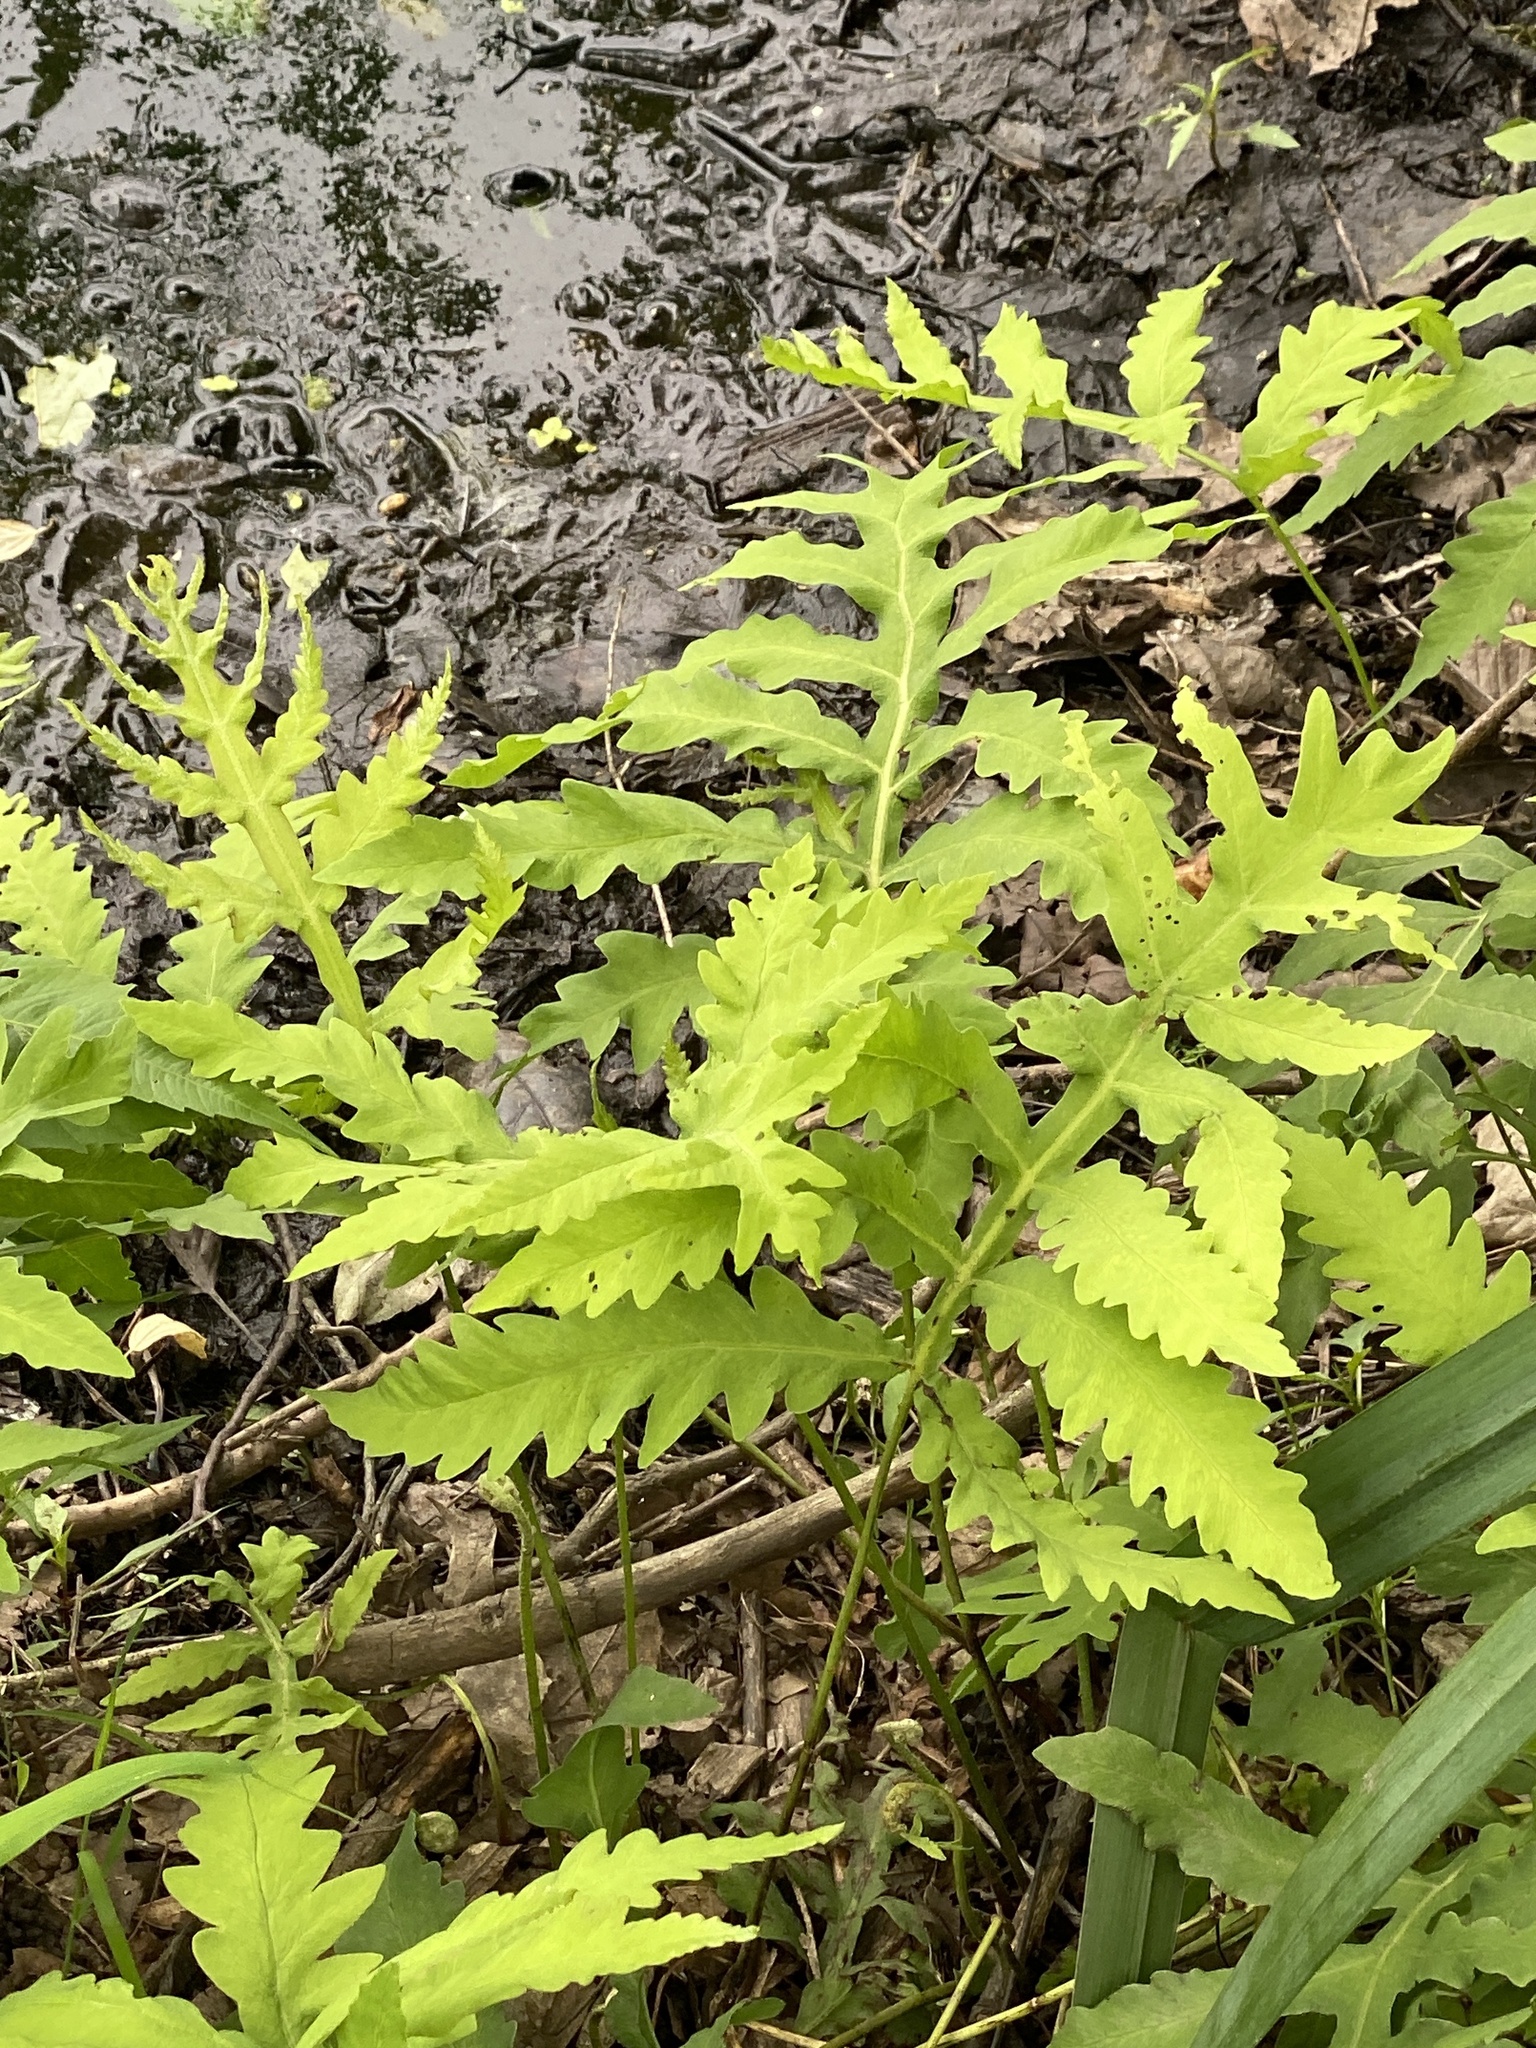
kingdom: Plantae
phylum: Tracheophyta
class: Polypodiopsida
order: Polypodiales
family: Onocleaceae
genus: Onoclea
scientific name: Onoclea sensibilis
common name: Sensitive fern
